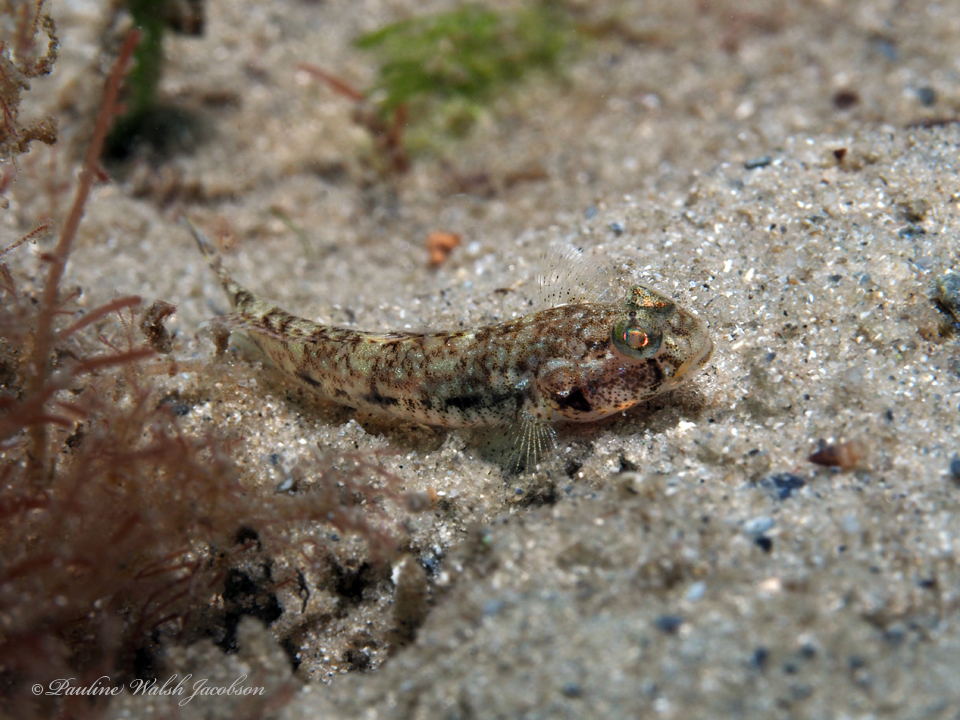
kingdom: Animalia
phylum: Chordata
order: Perciformes
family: Gobiidae
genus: Ctenogobius
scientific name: Ctenogobius saepepallens
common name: Dash goby
